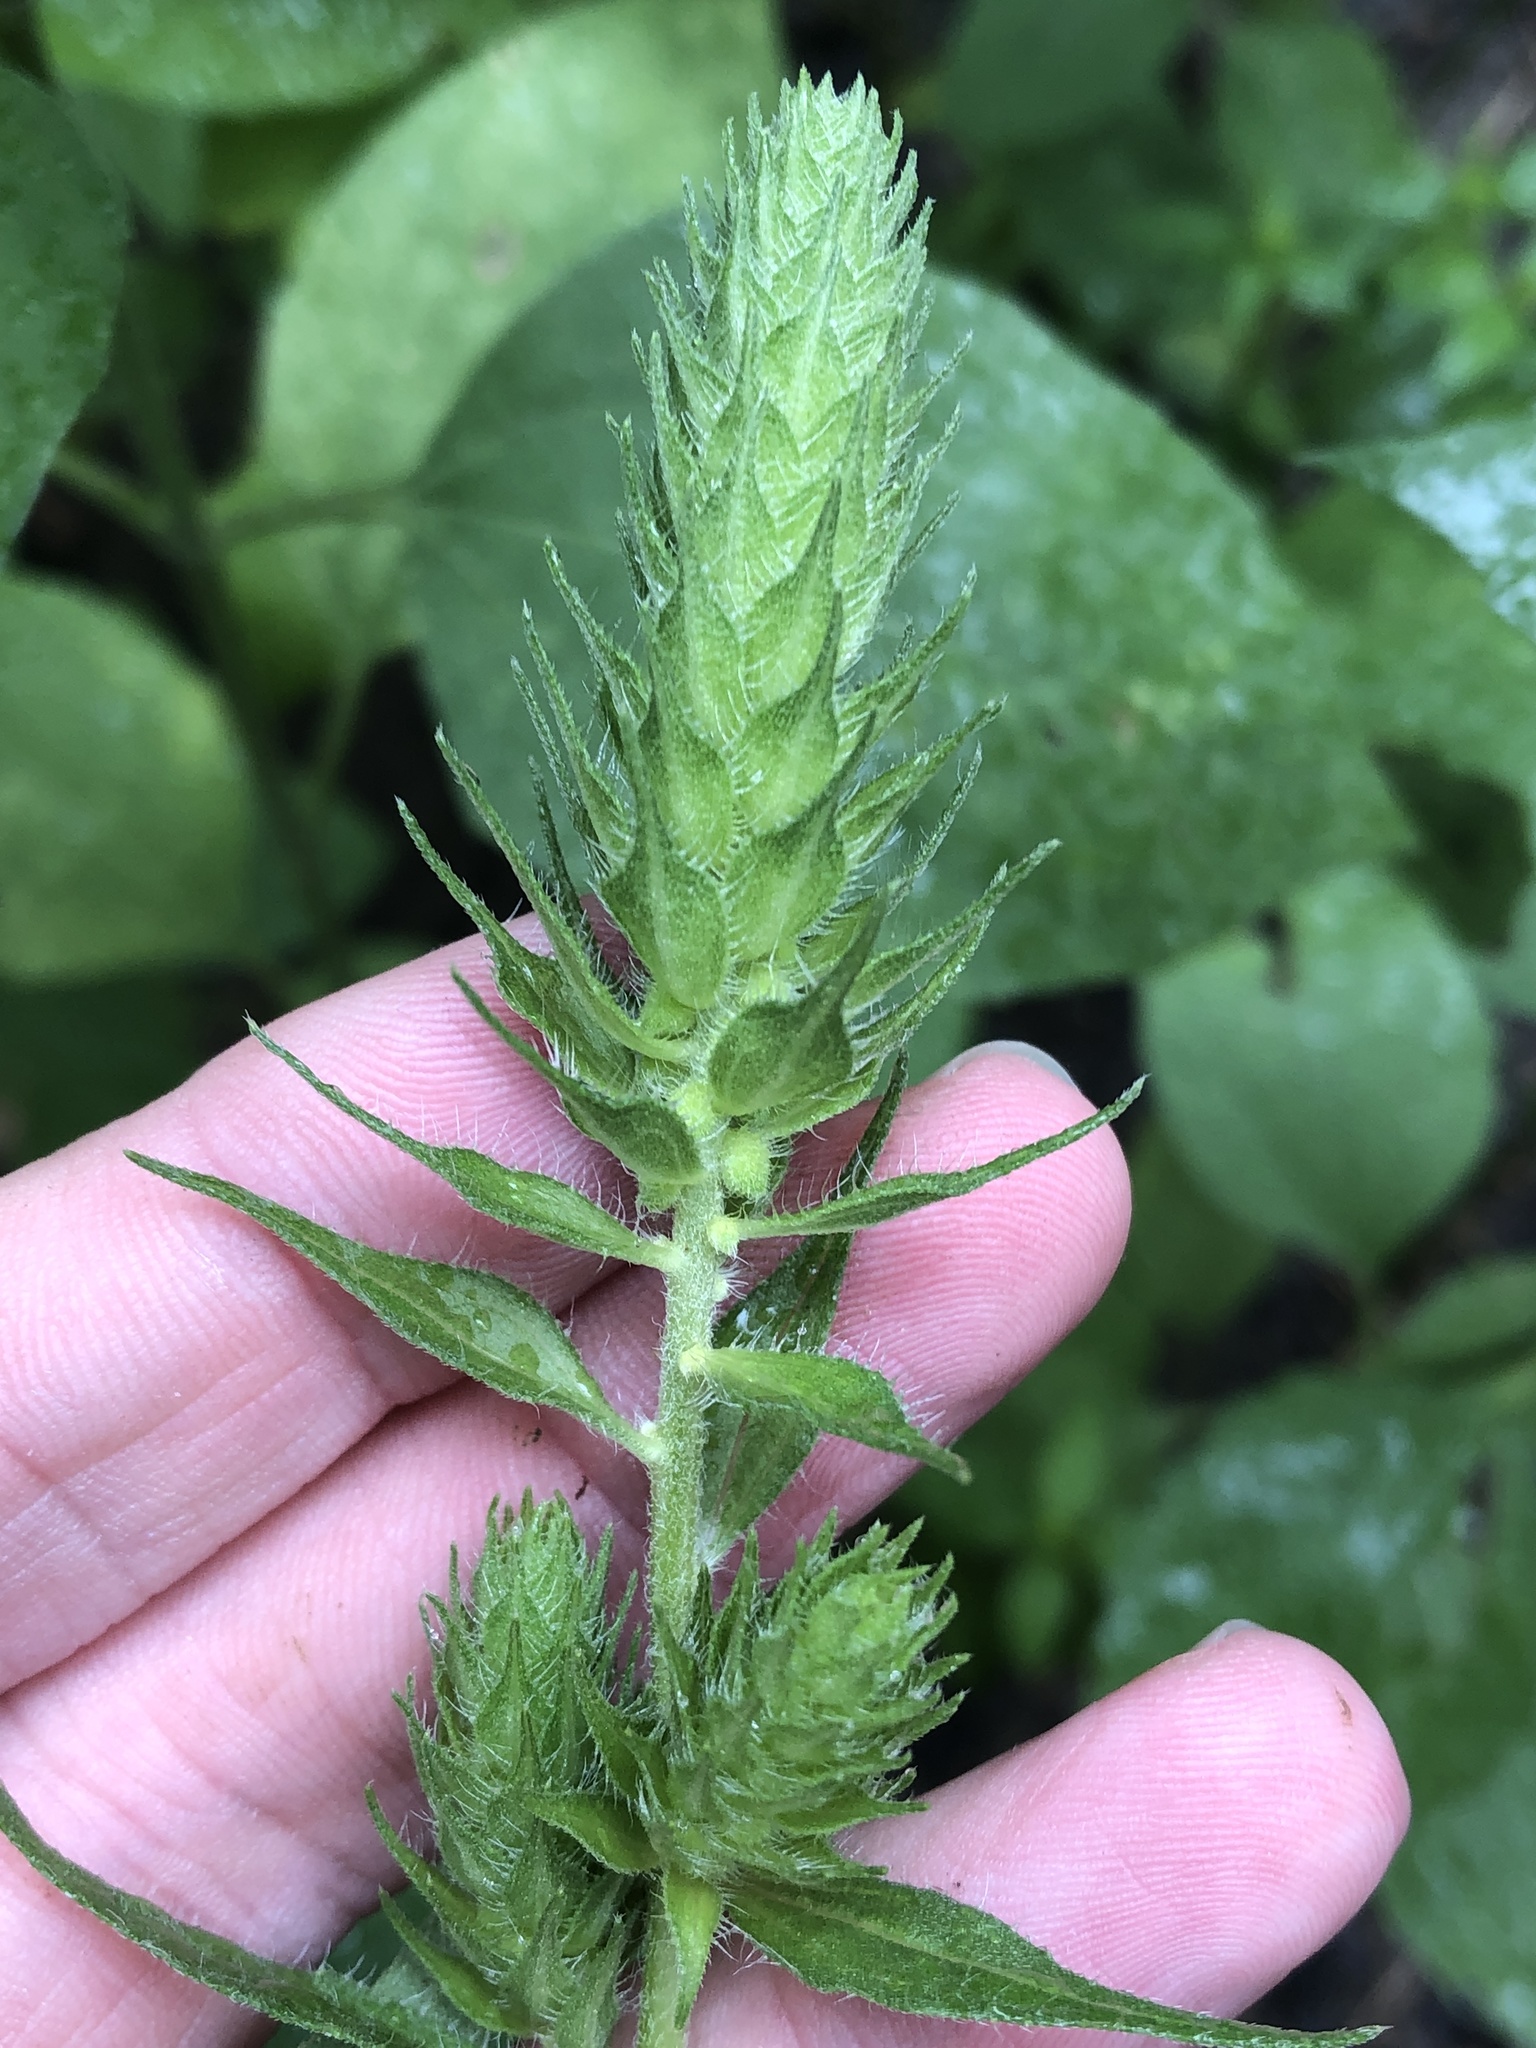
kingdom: Plantae
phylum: Tracheophyta
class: Magnoliopsida
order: Asterales
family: Asteraceae
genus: Iva
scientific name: Iva annua
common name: Marsh-elder
